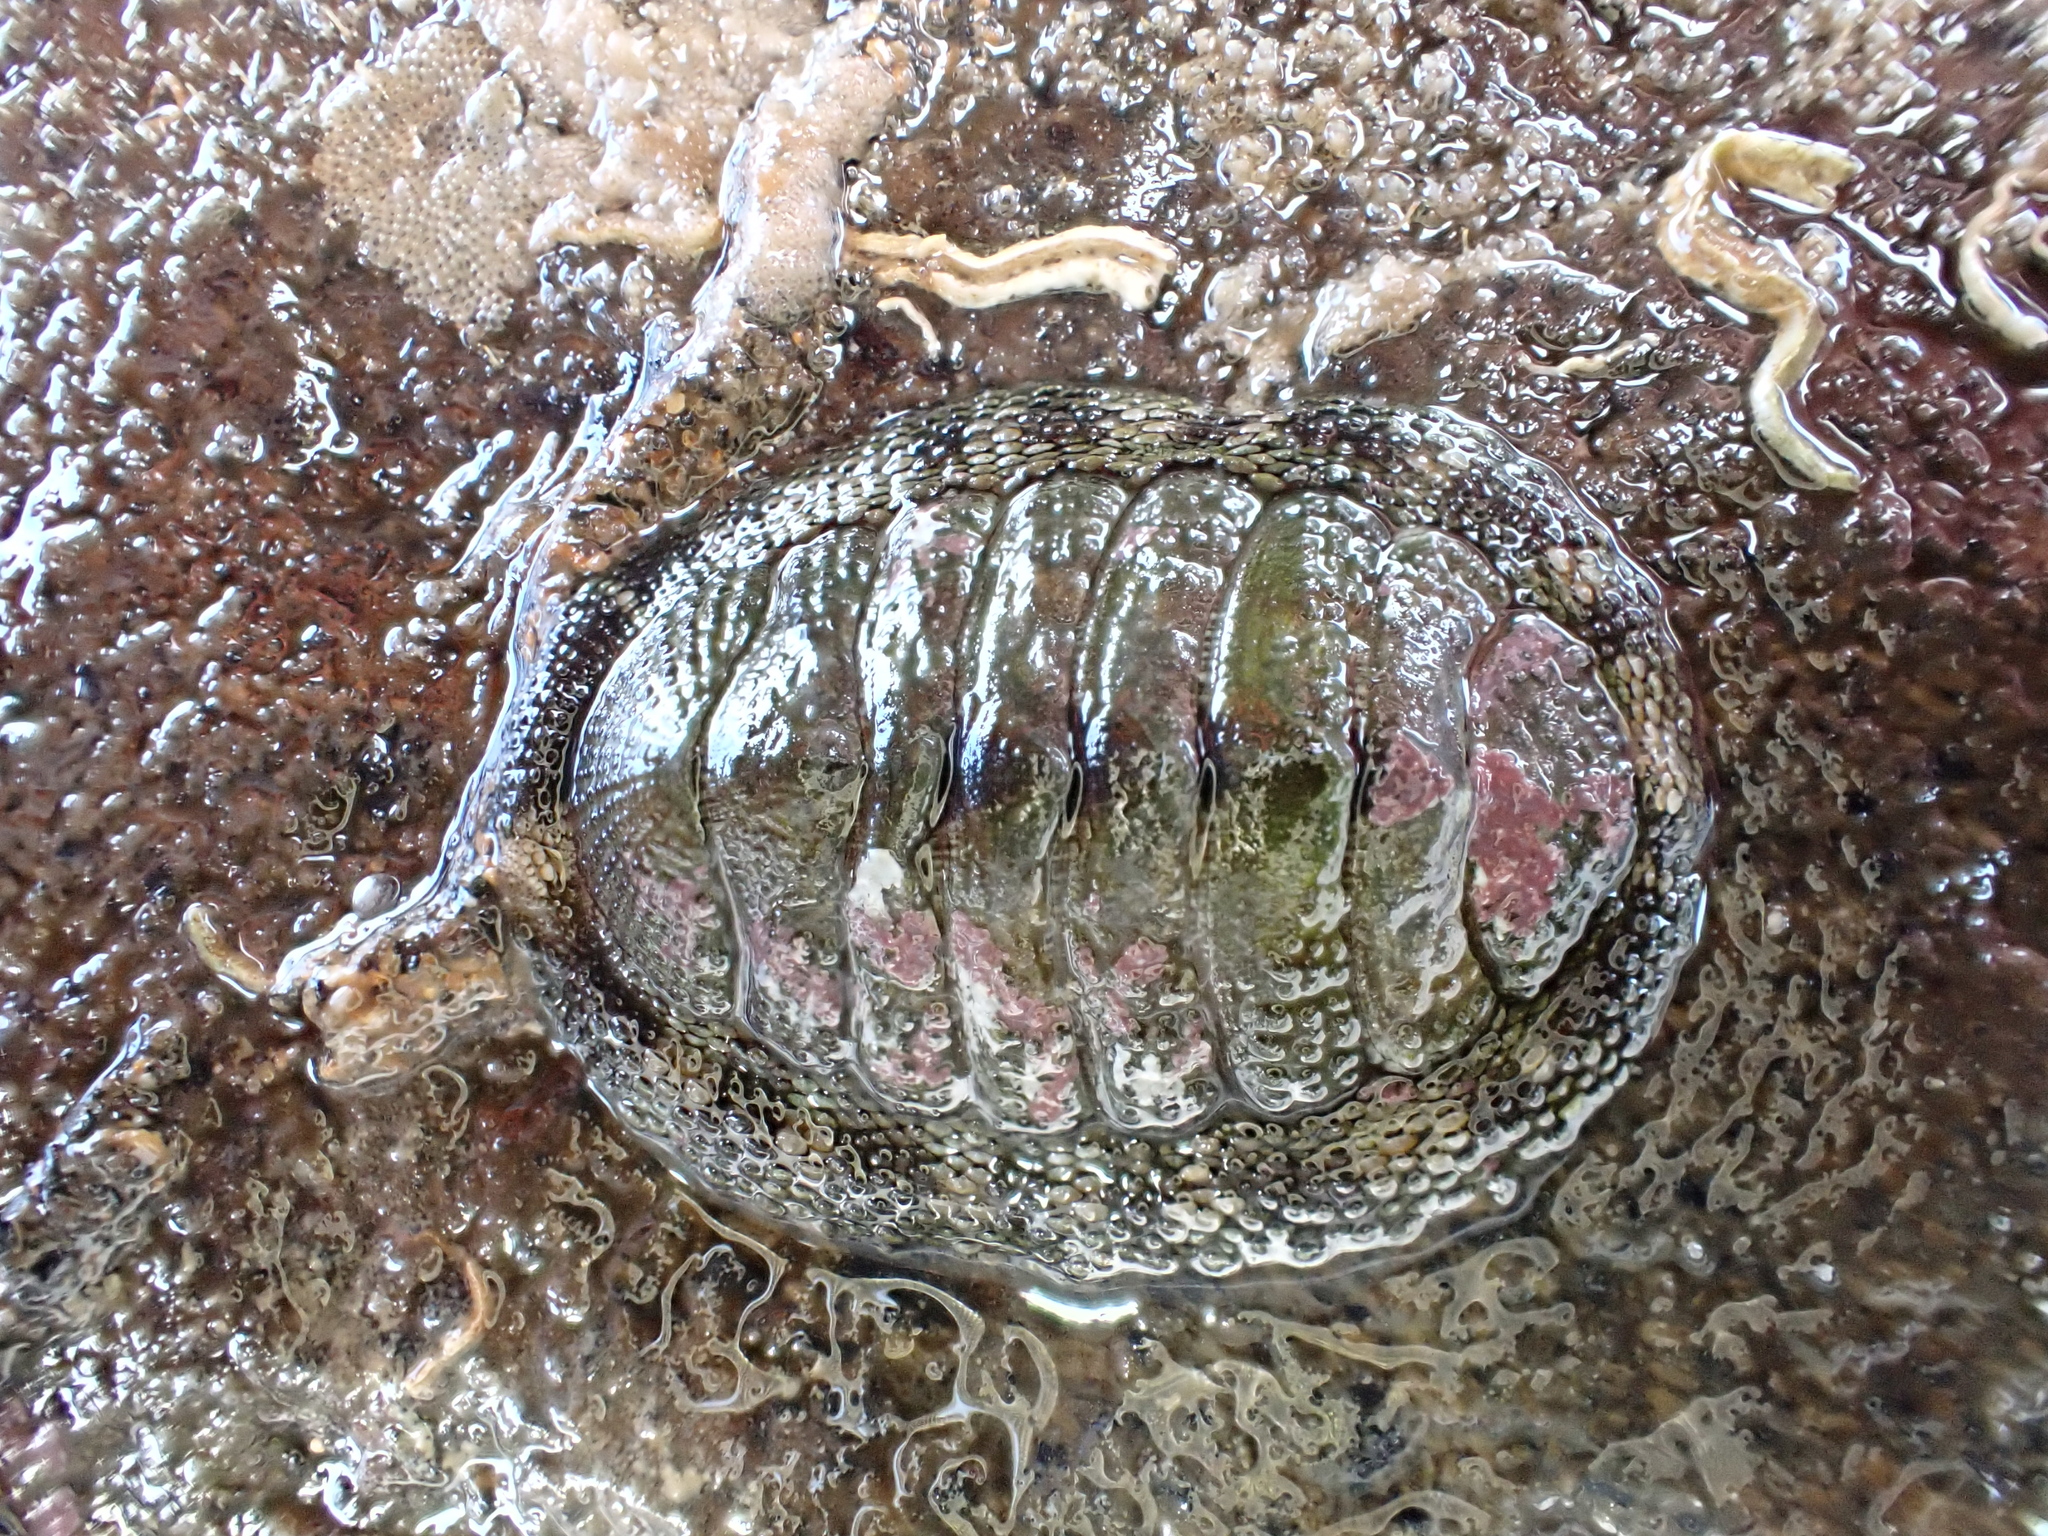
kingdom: Animalia
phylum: Mollusca
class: Polyplacophora
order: Chitonida
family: Chitonidae
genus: Sypharochiton
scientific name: Sypharochiton pelliserpentis
